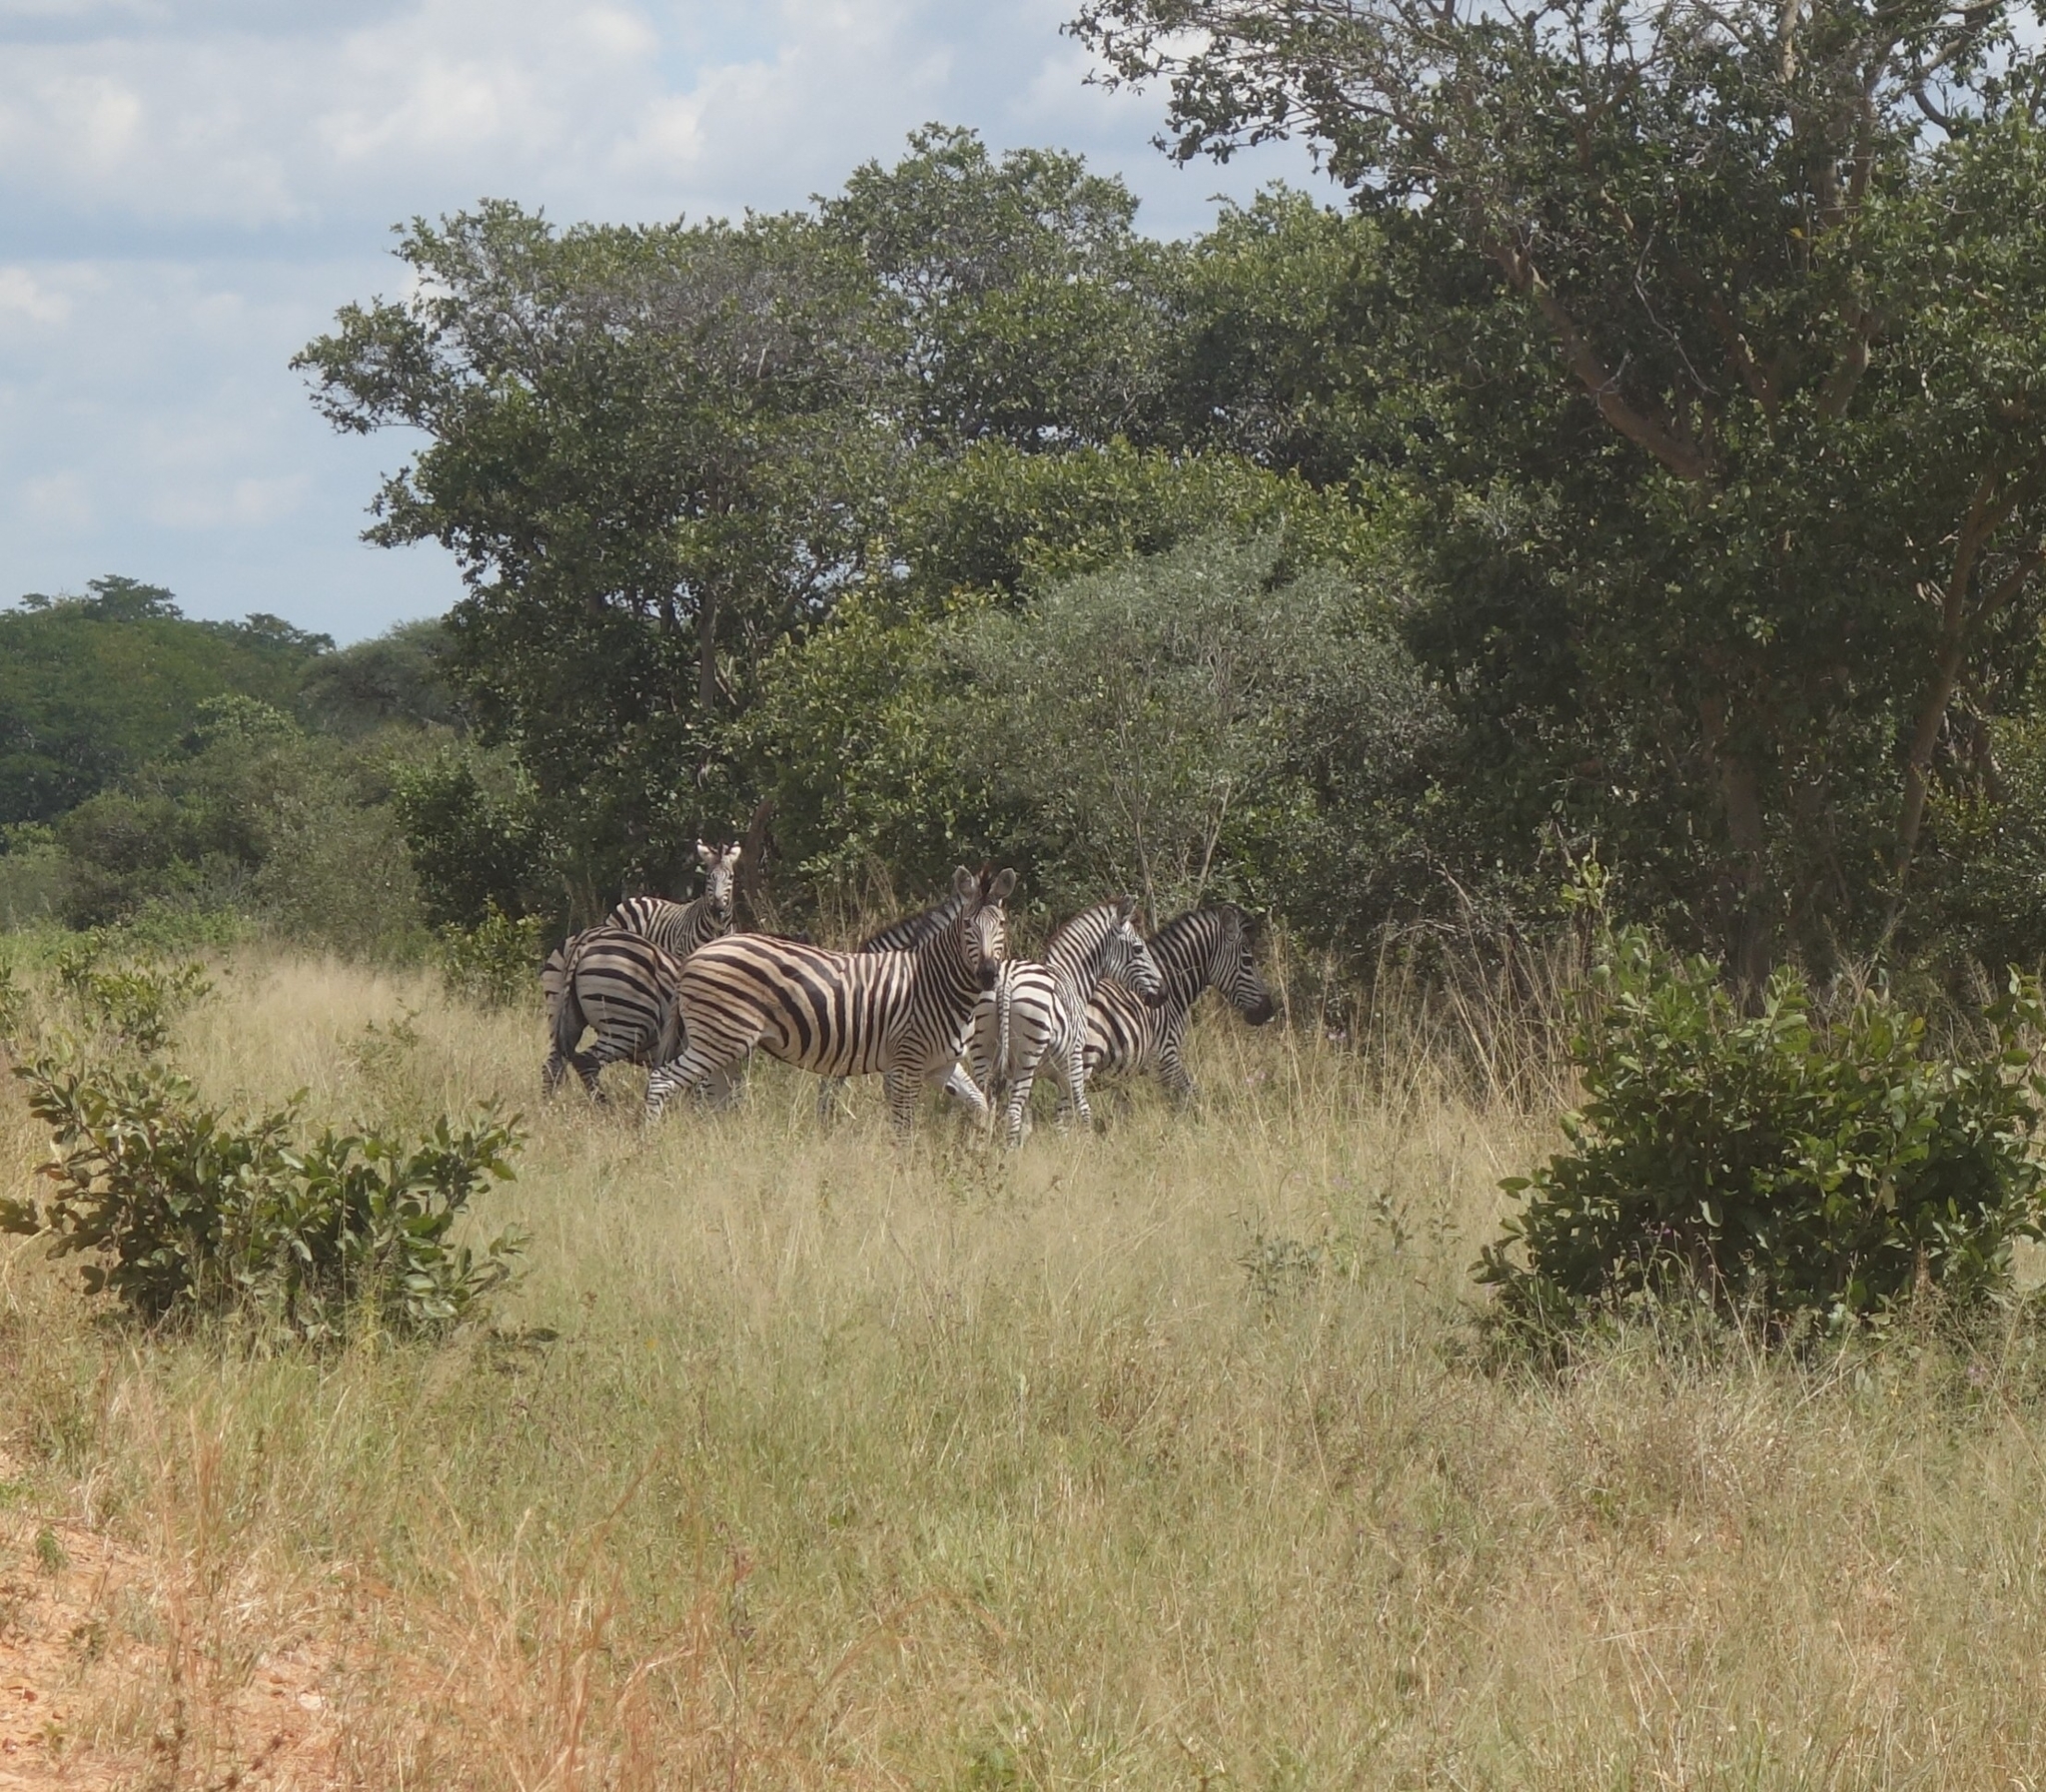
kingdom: Animalia
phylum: Chordata
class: Mammalia
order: Perissodactyla
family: Equidae
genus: Equus
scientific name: Equus quagga
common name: Plains zebra
